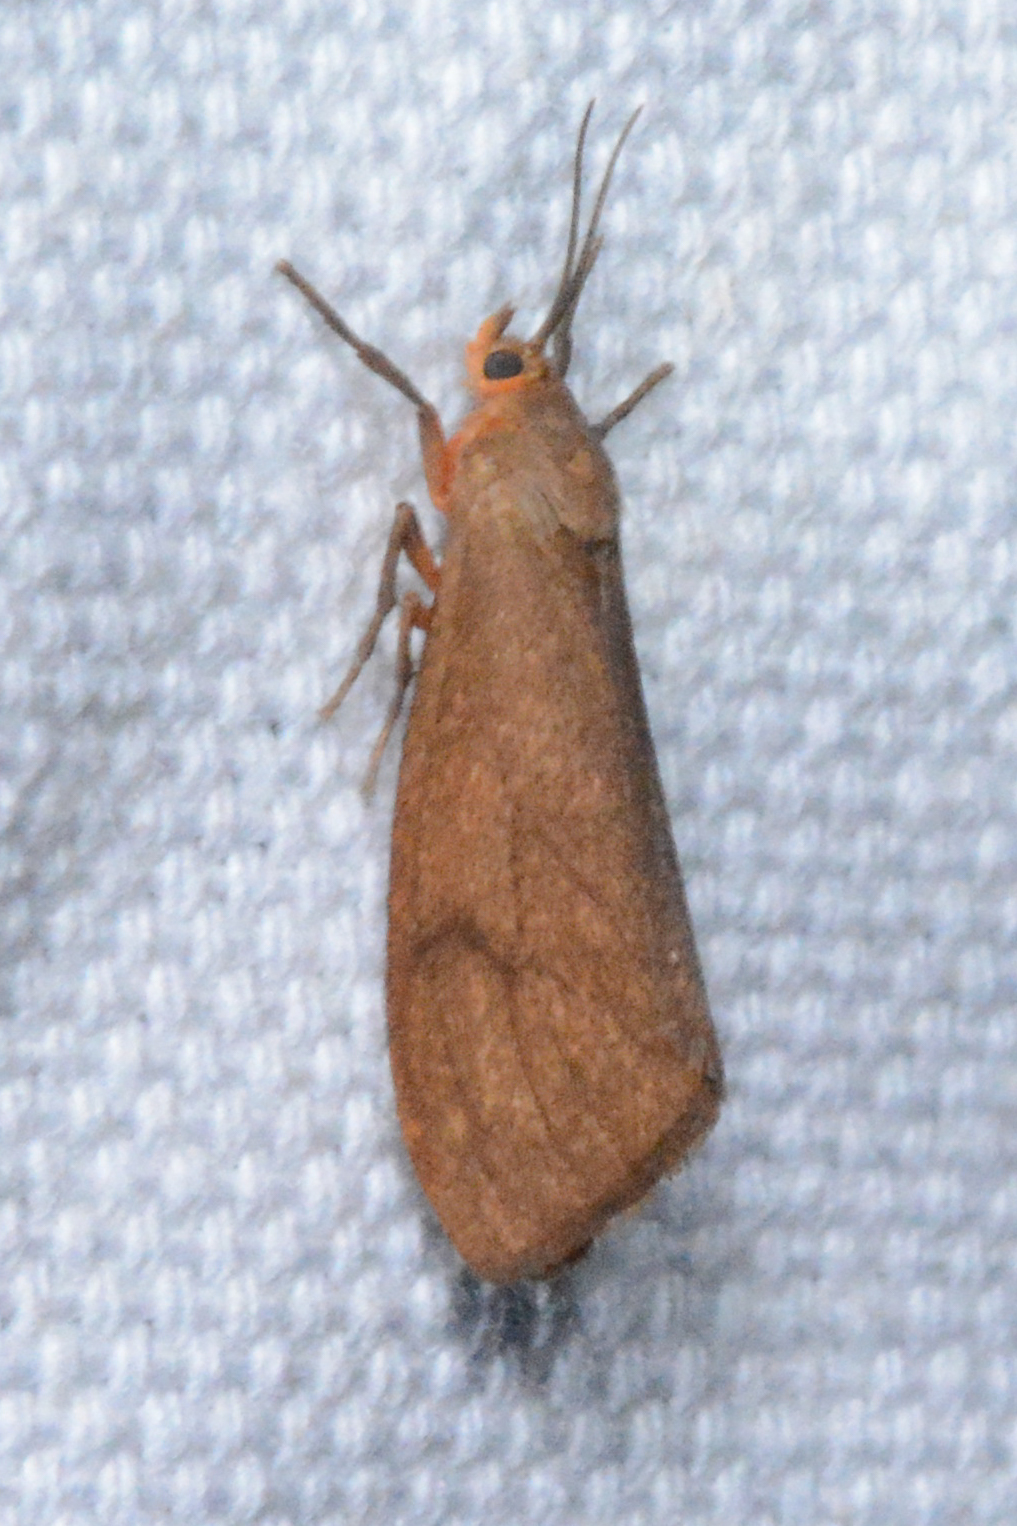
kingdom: Animalia
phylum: Arthropoda
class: Insecta
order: Lepidoptera
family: Erebidae
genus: Virbia
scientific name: Virbia opella
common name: Tawny virbia moth
